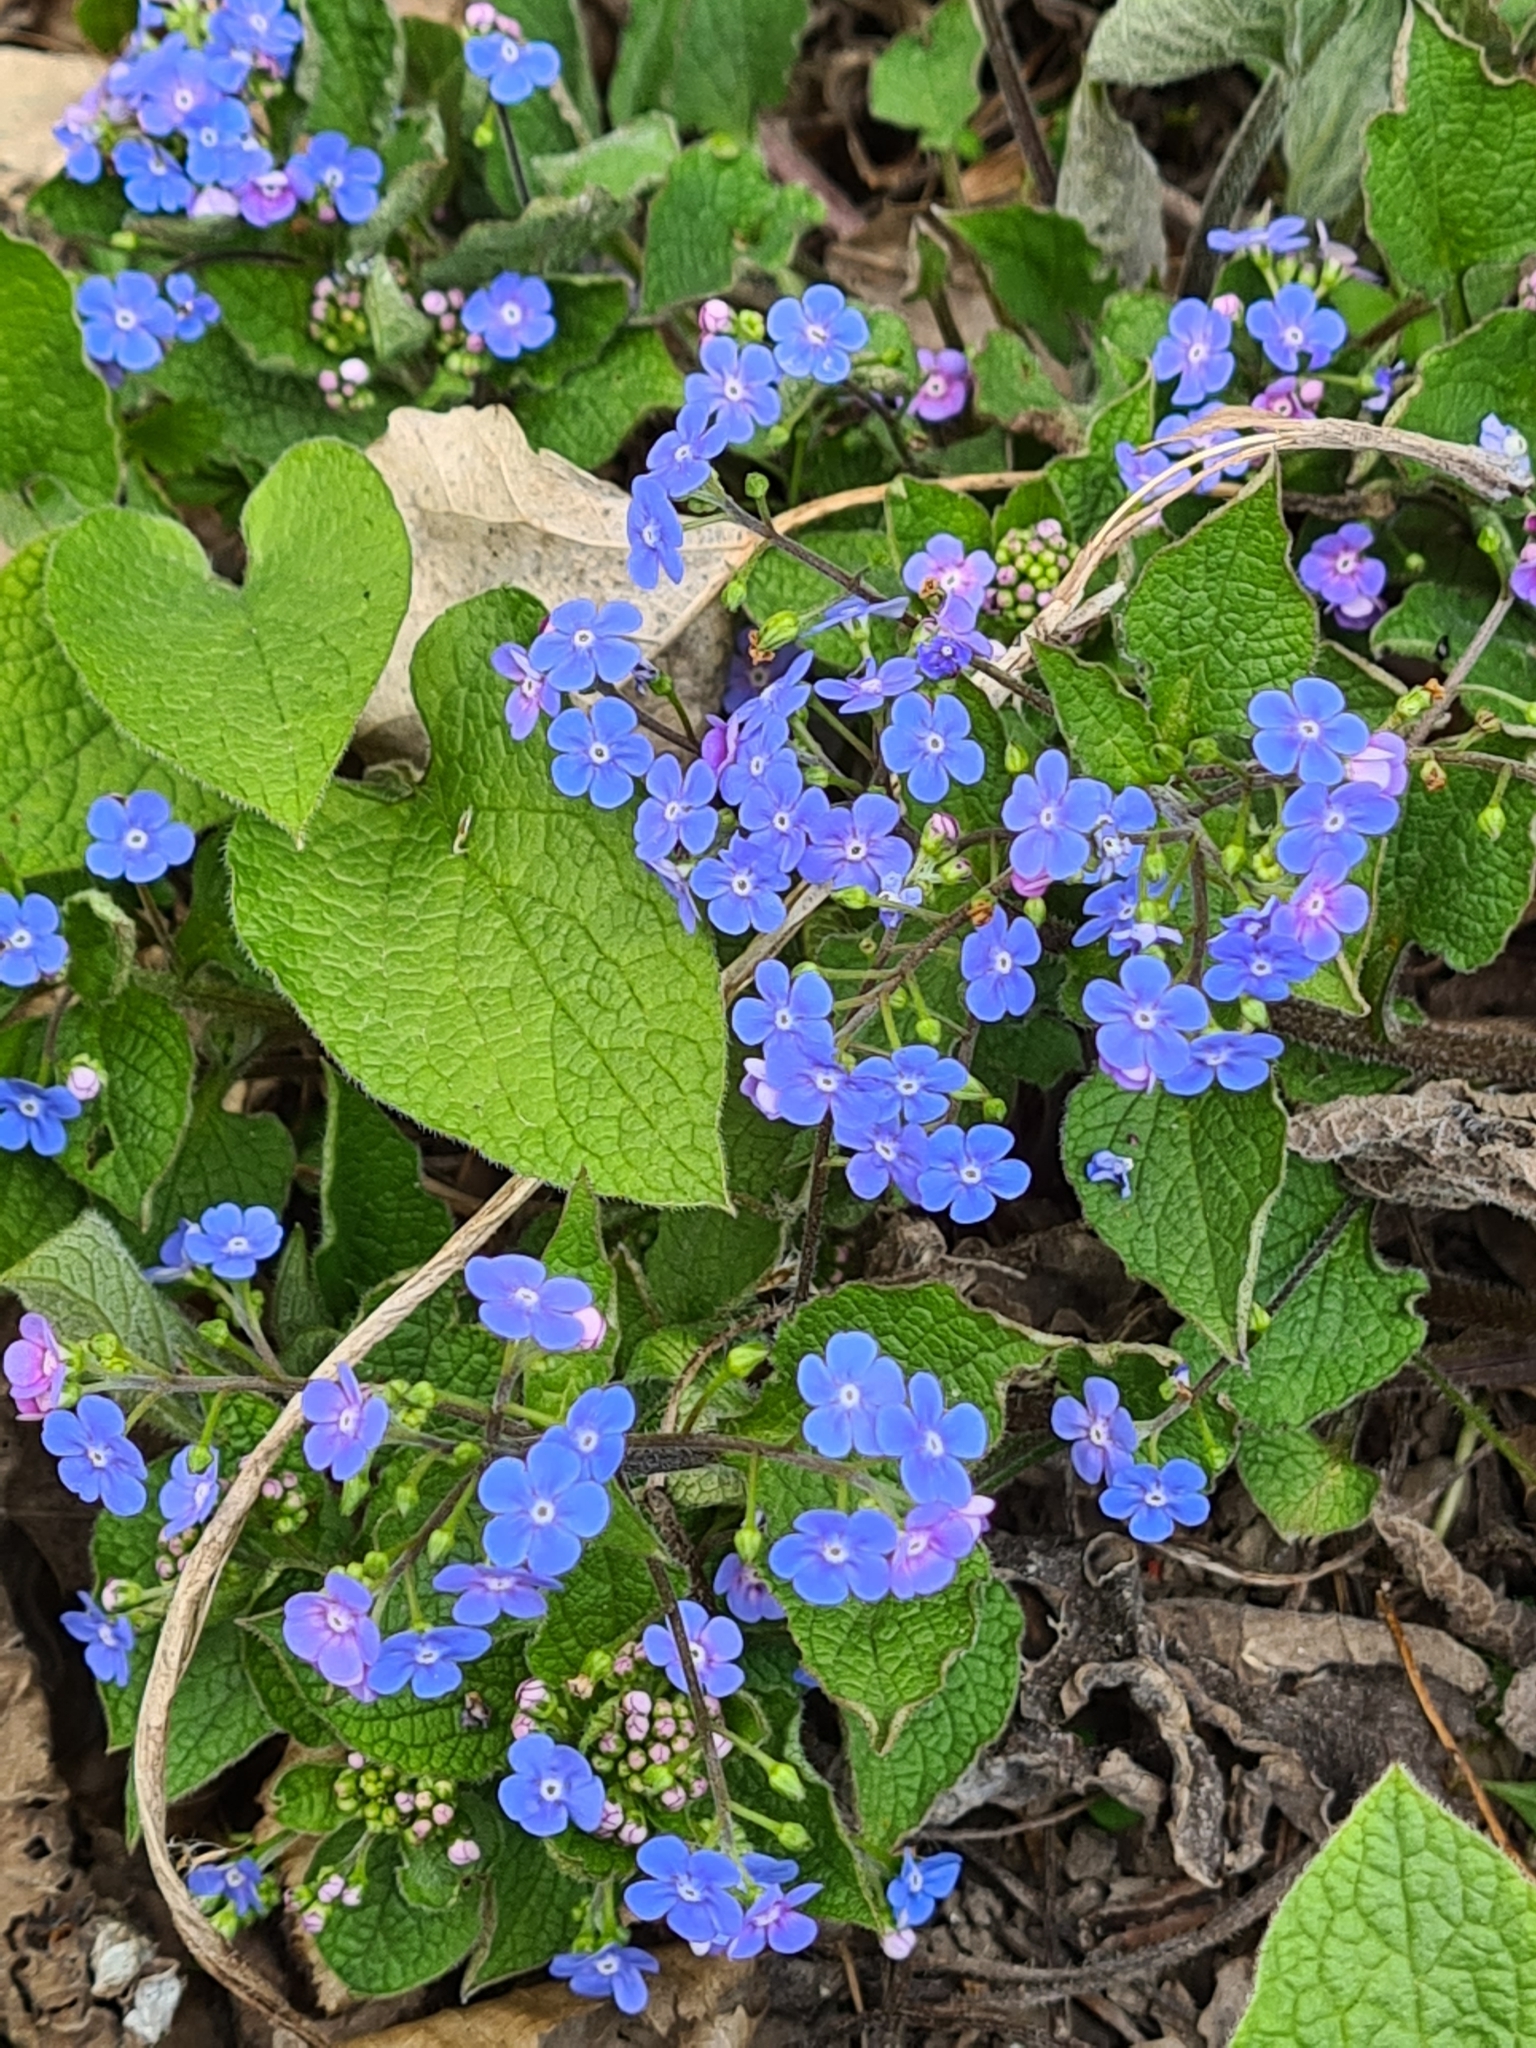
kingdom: Plantae
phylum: Tracheophyta
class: Magnoliopsida
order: Boraginales
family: Boraginaceae
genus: Brunnera
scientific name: Brunnera macrophylla
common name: Great forget-me-not
